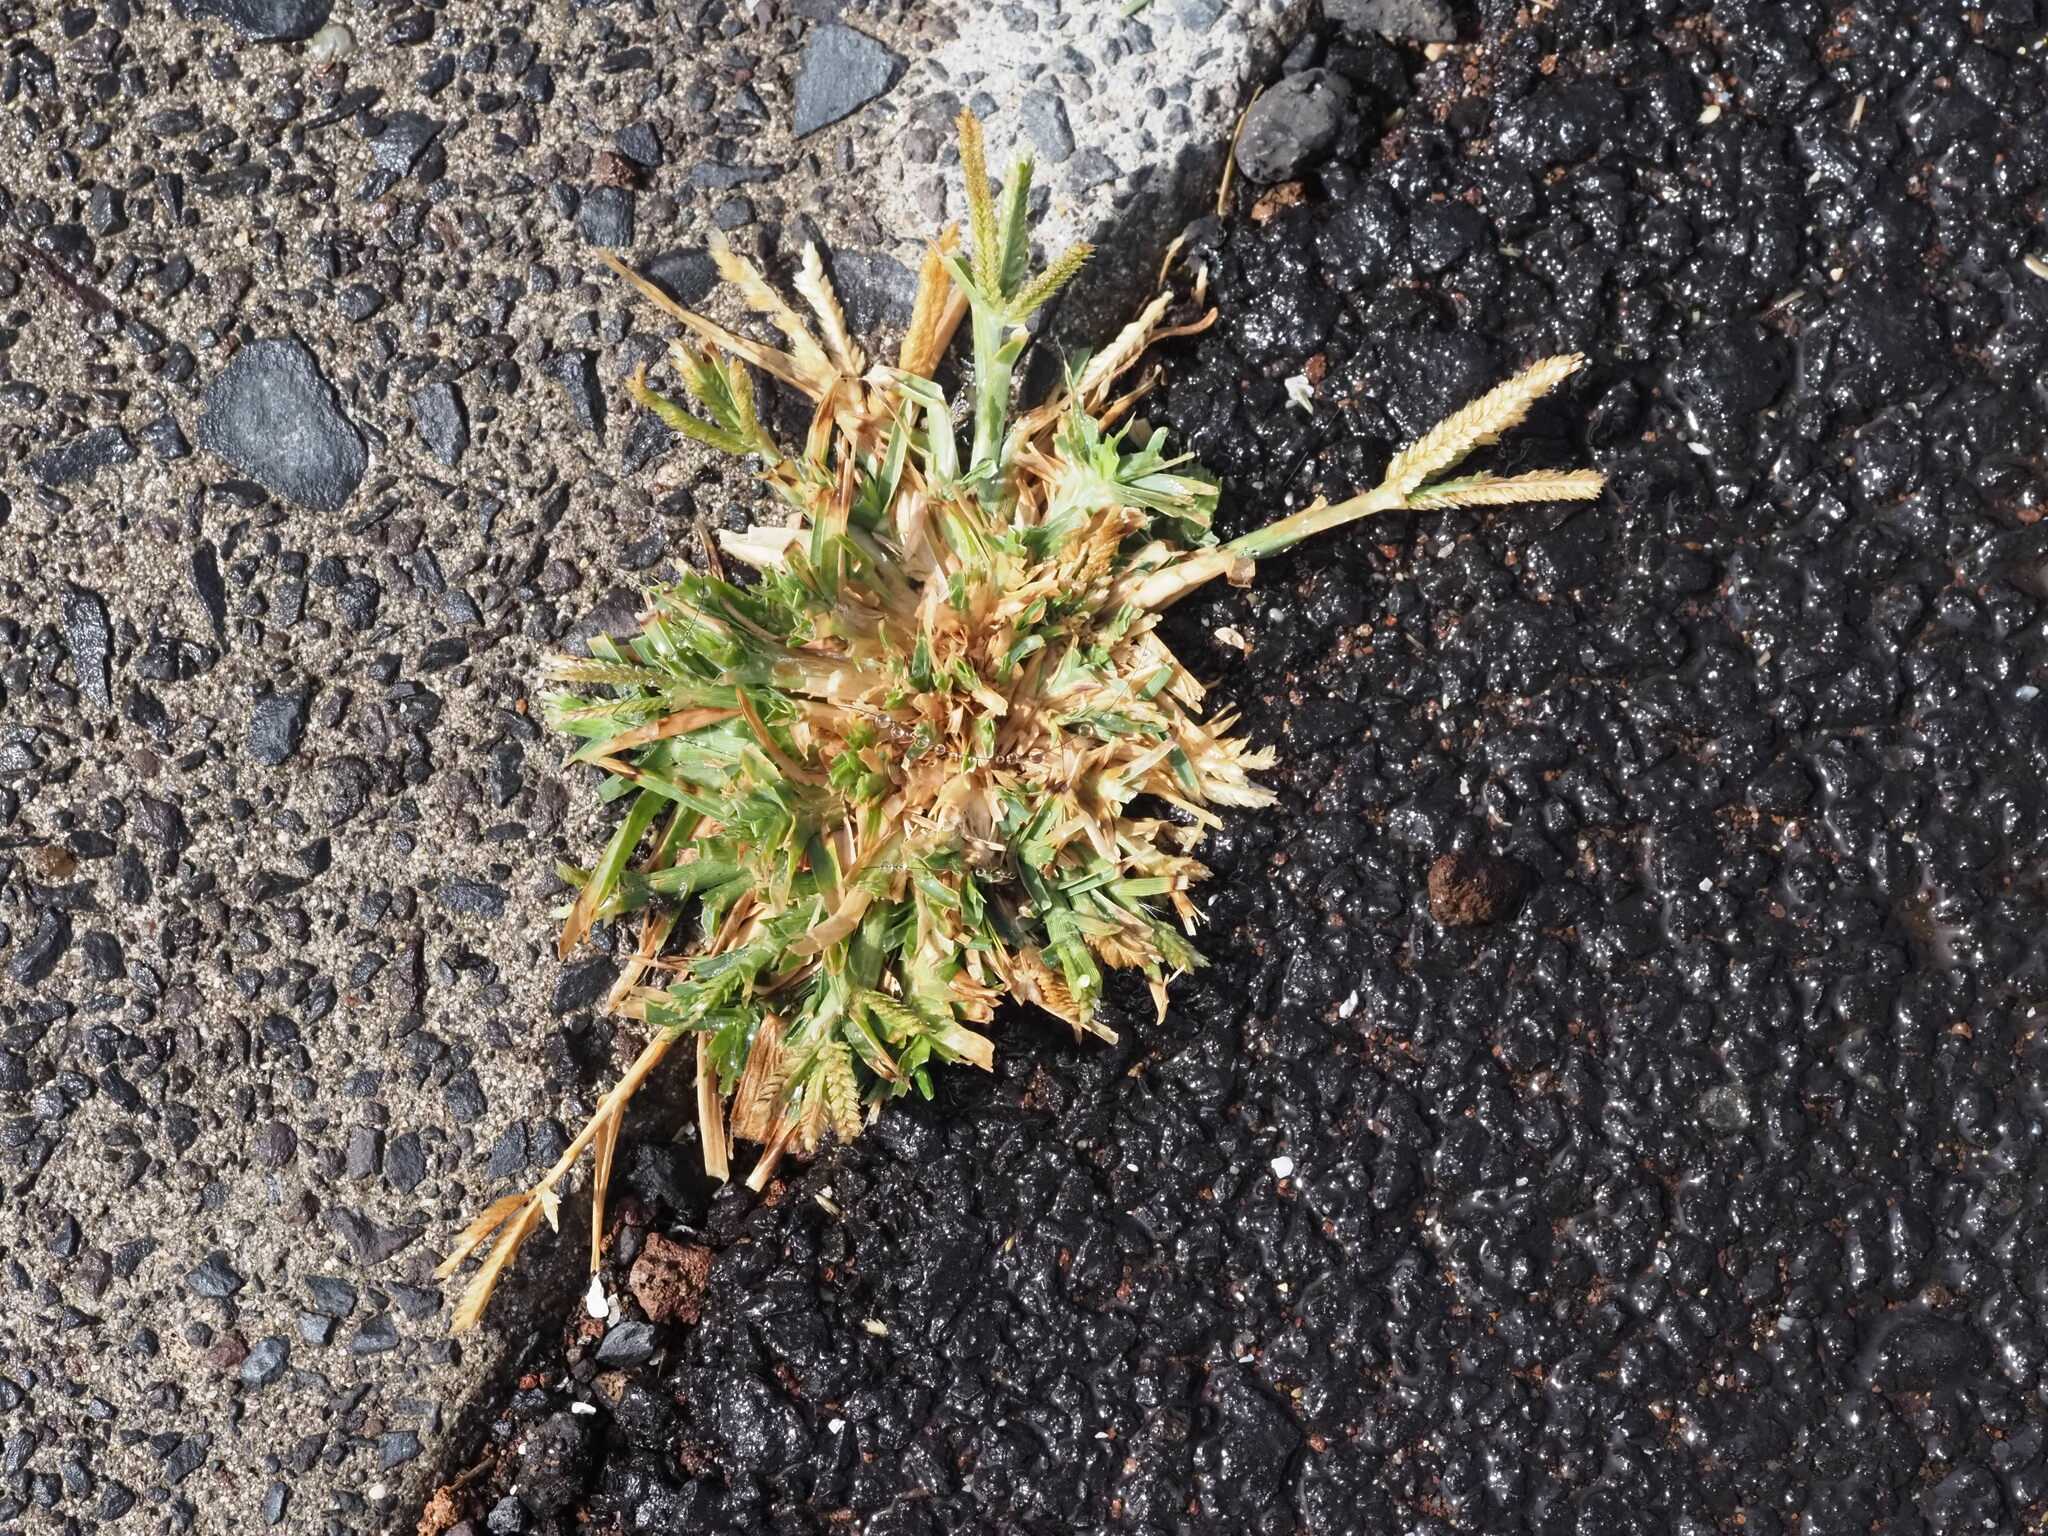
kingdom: Plantae
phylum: Tracheophyta
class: Liliopsida
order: Poales
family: Poaceae
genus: Eleusine
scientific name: Eleusine indica
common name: Yard-grass
